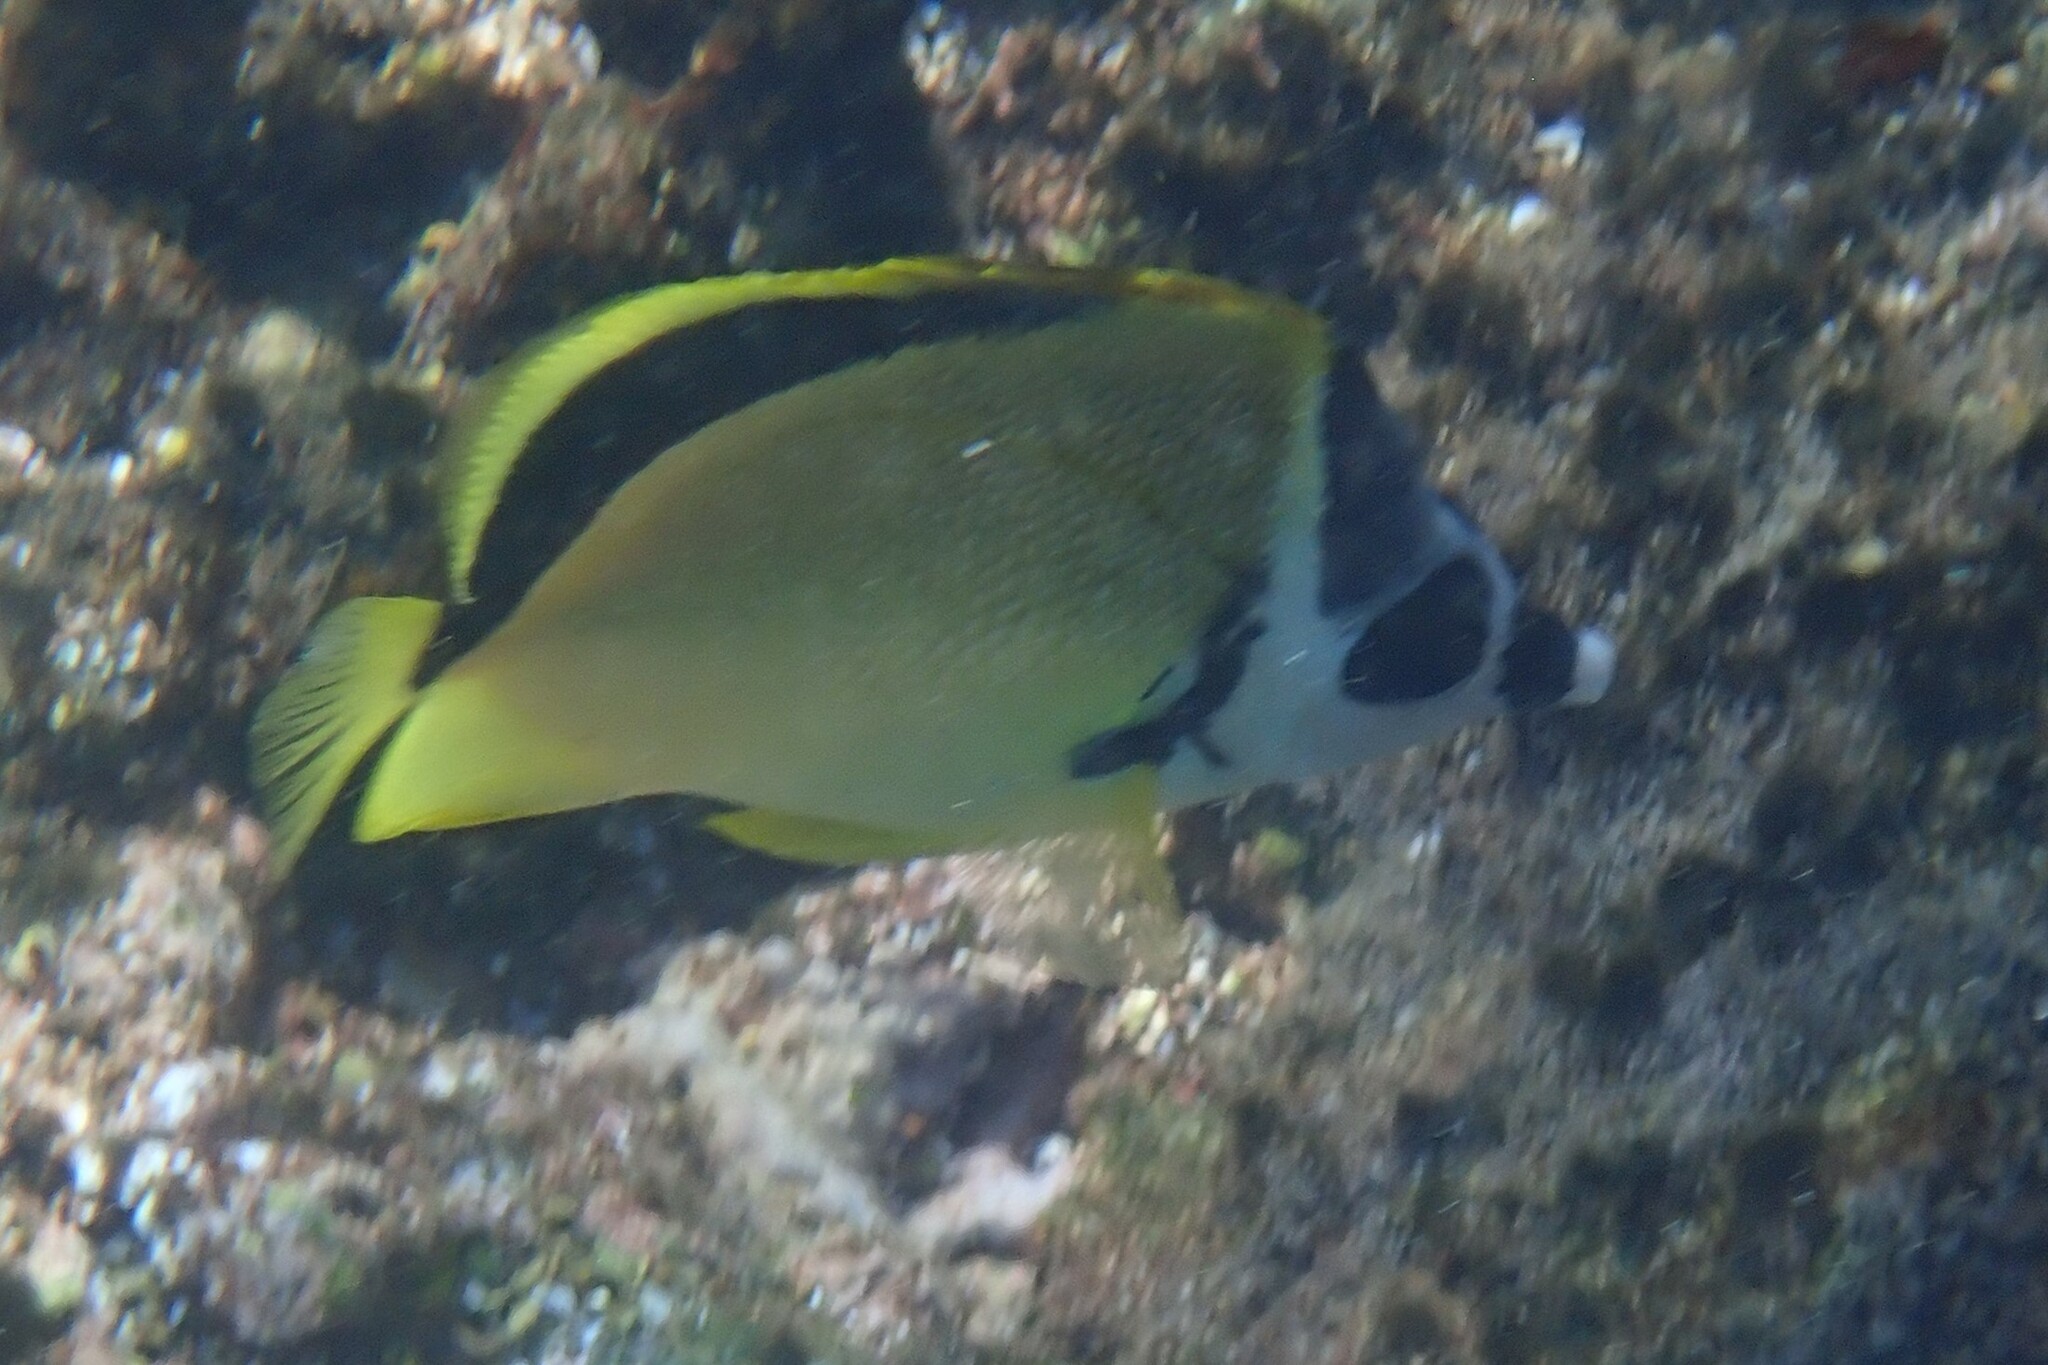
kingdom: Animalia
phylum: Chordata
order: Perciformes
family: Chaetodontidae
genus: Johnrandallia
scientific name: Johnrandallia nigrirostris
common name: Barberfish
